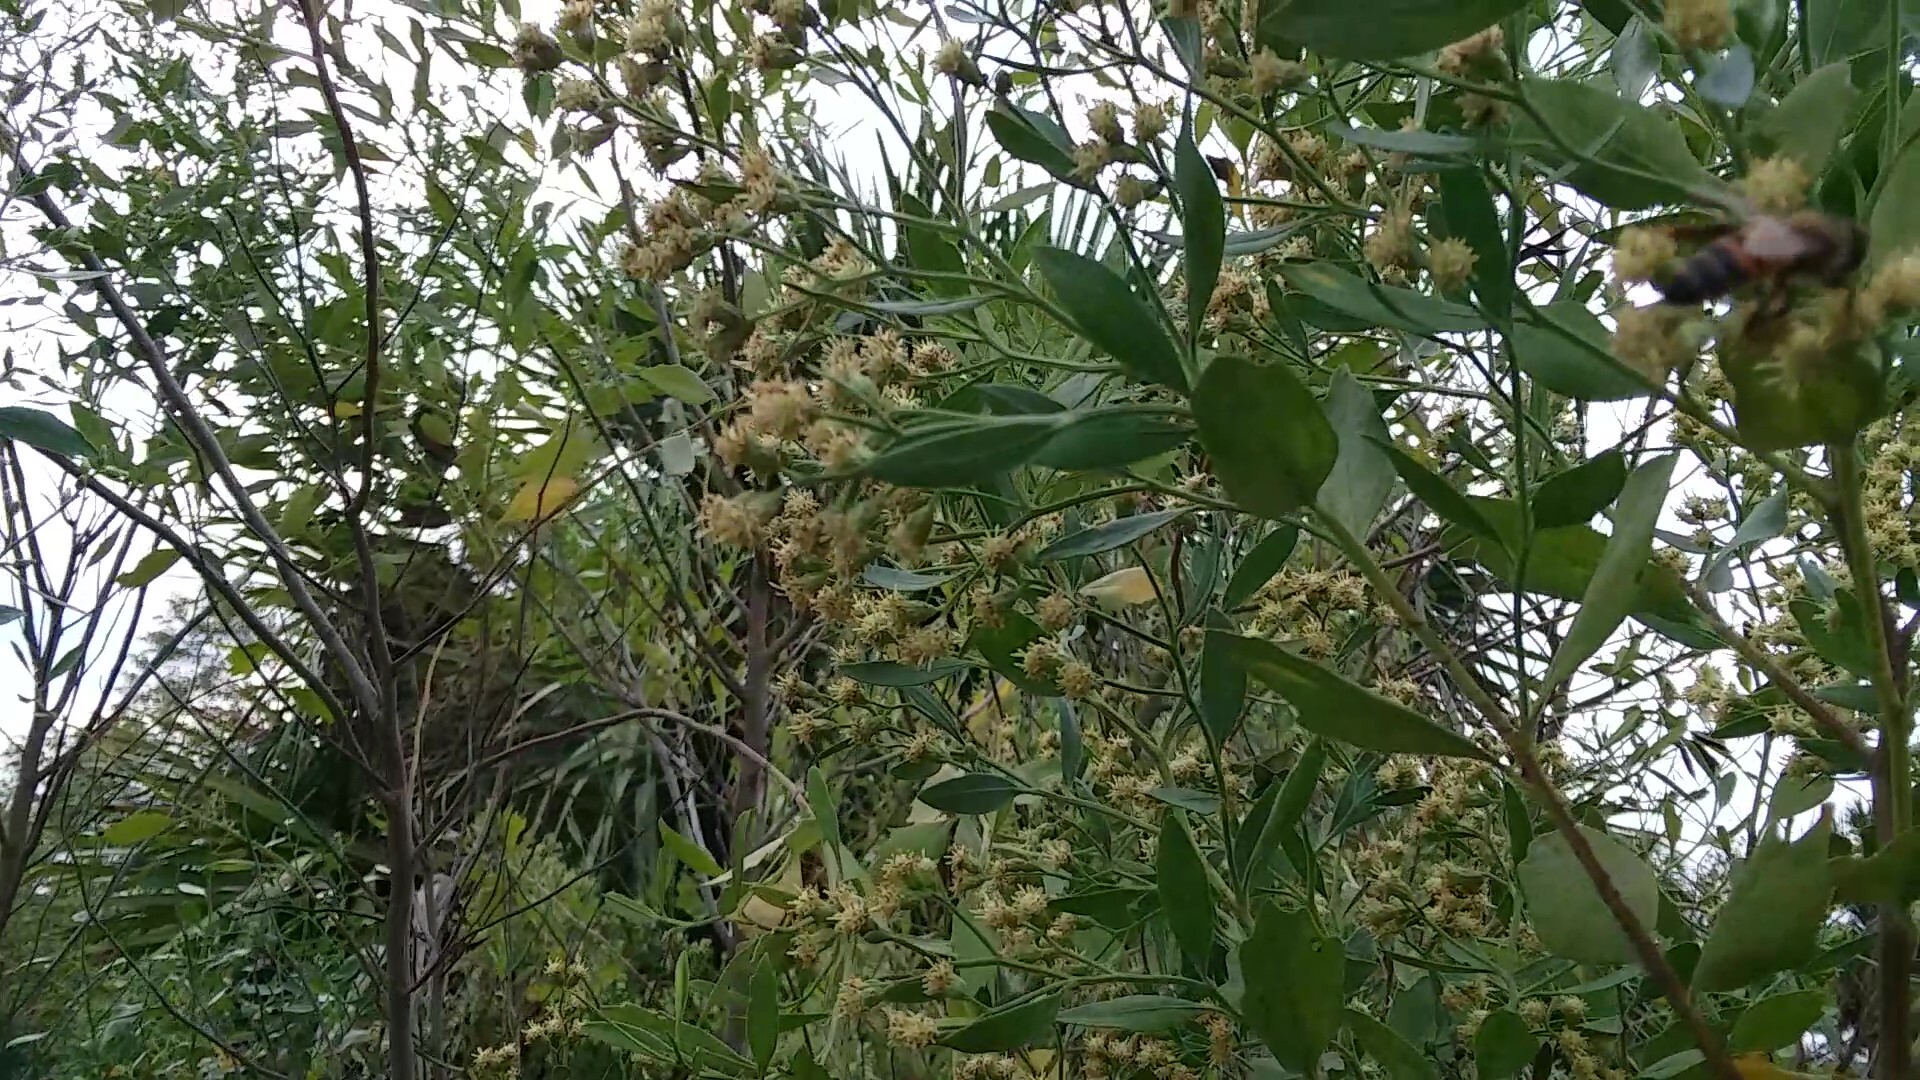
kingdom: Animalia
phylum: Arthropoda
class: Insecta
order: Hymenoptera
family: Apidae
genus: Apis
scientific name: Apis mellifera
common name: Honey bee
